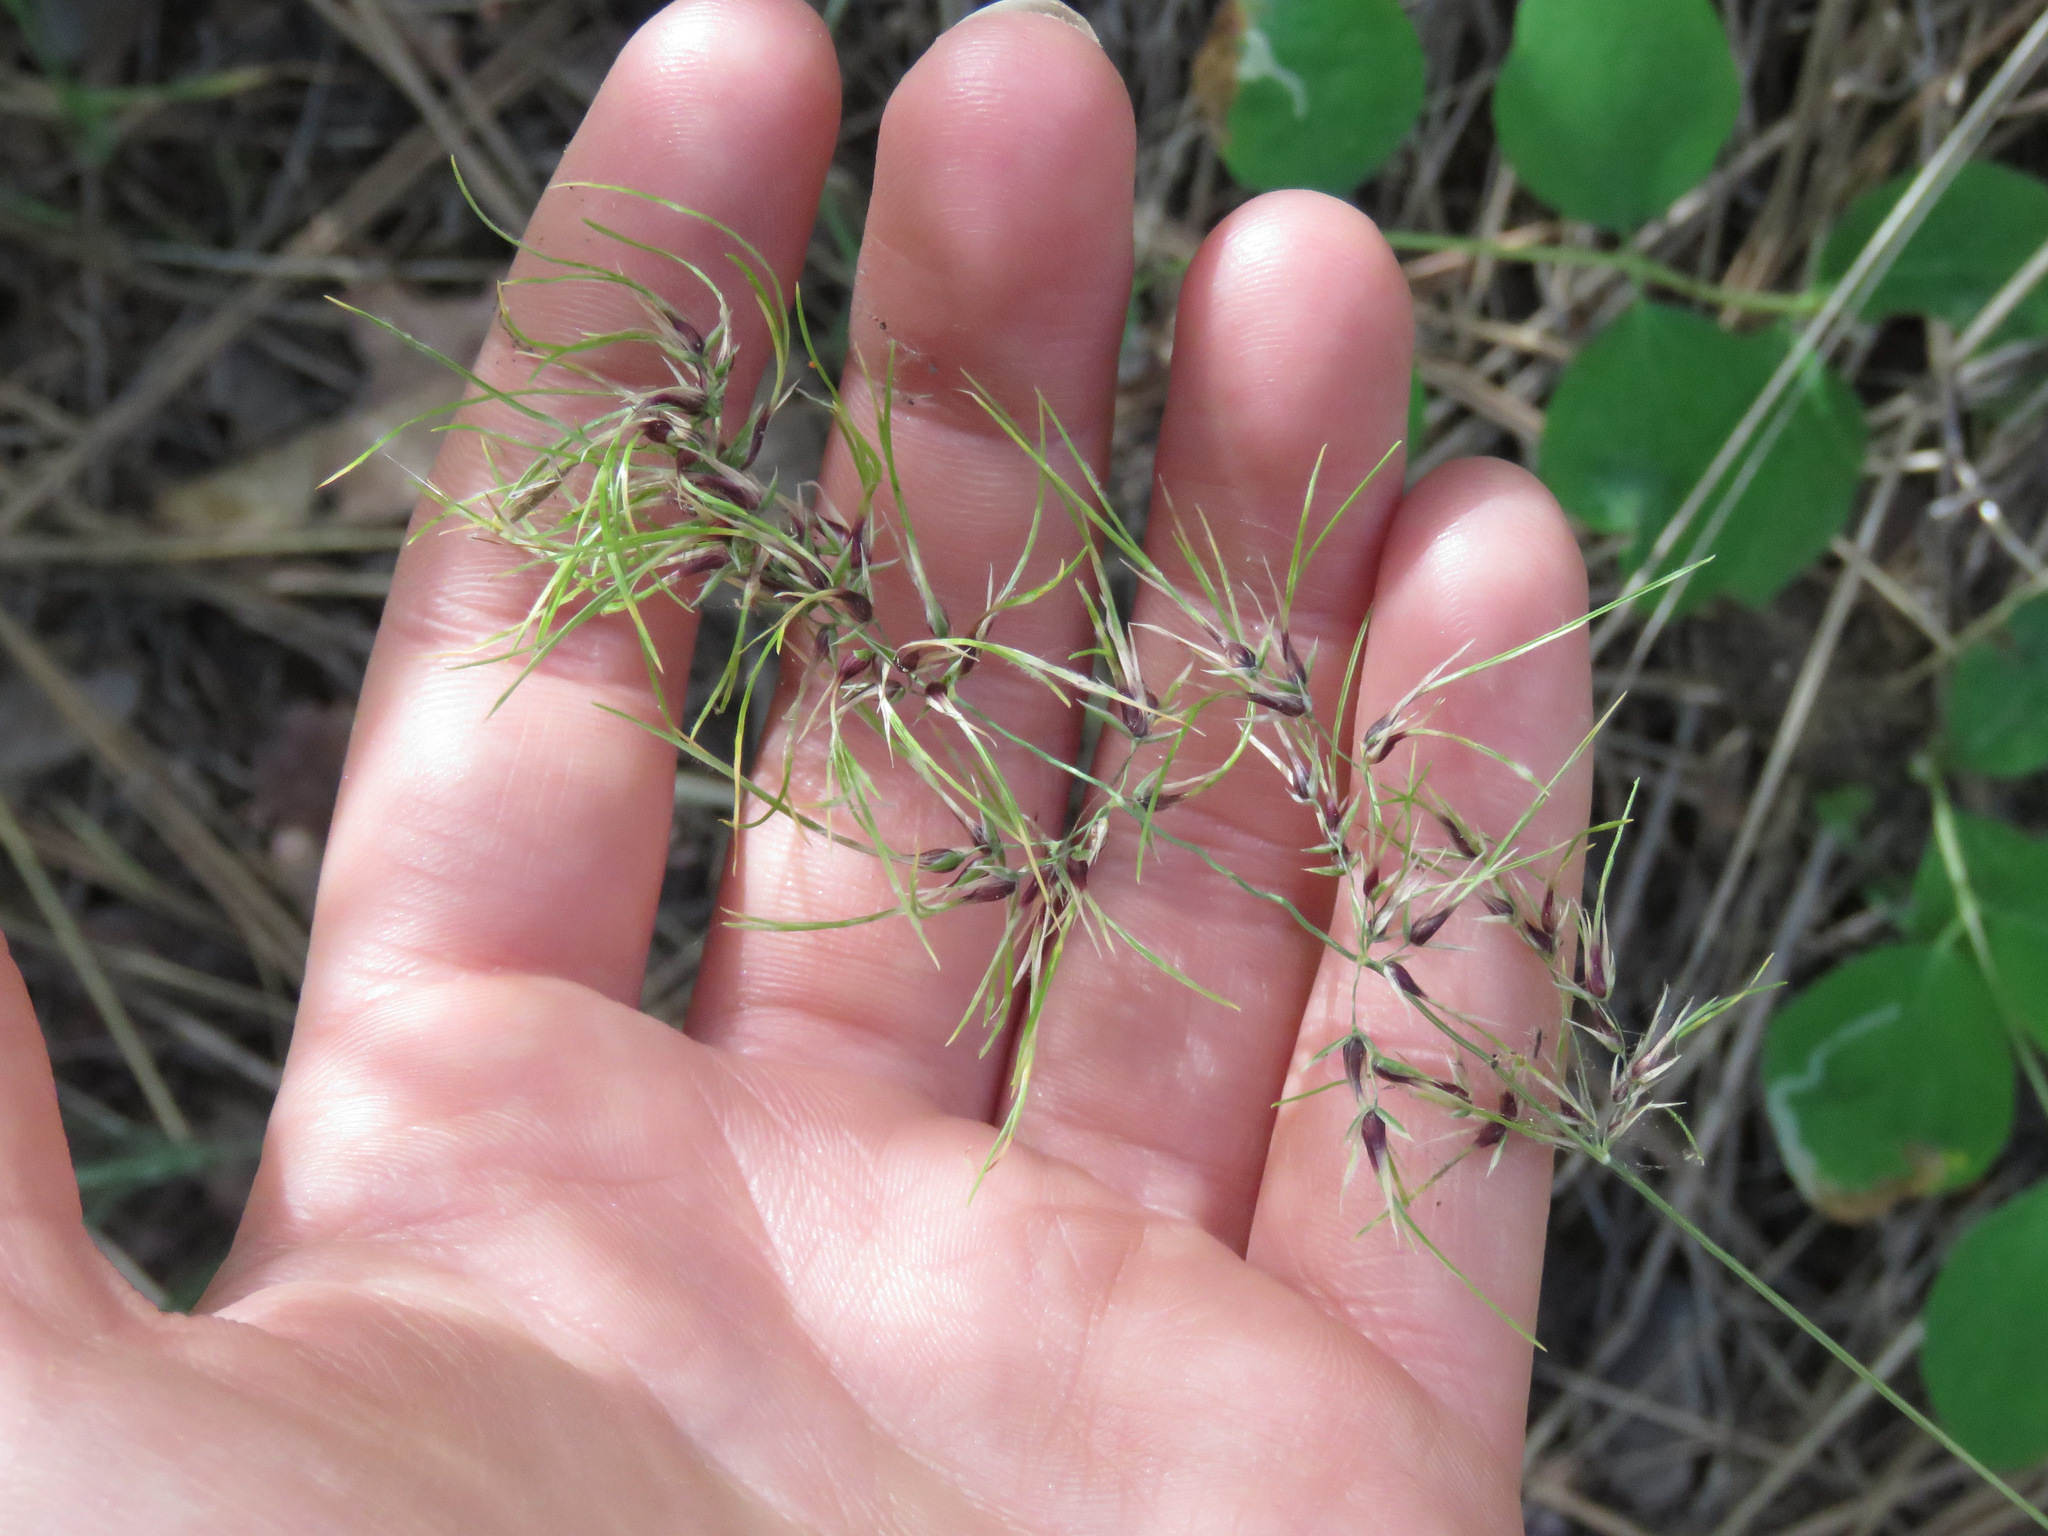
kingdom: Plantae
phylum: Tracheophyta
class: Liliopsida
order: Poales
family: Poaceae
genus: Poa
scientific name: Poa bulbosa
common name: Bulbous bluegrass
